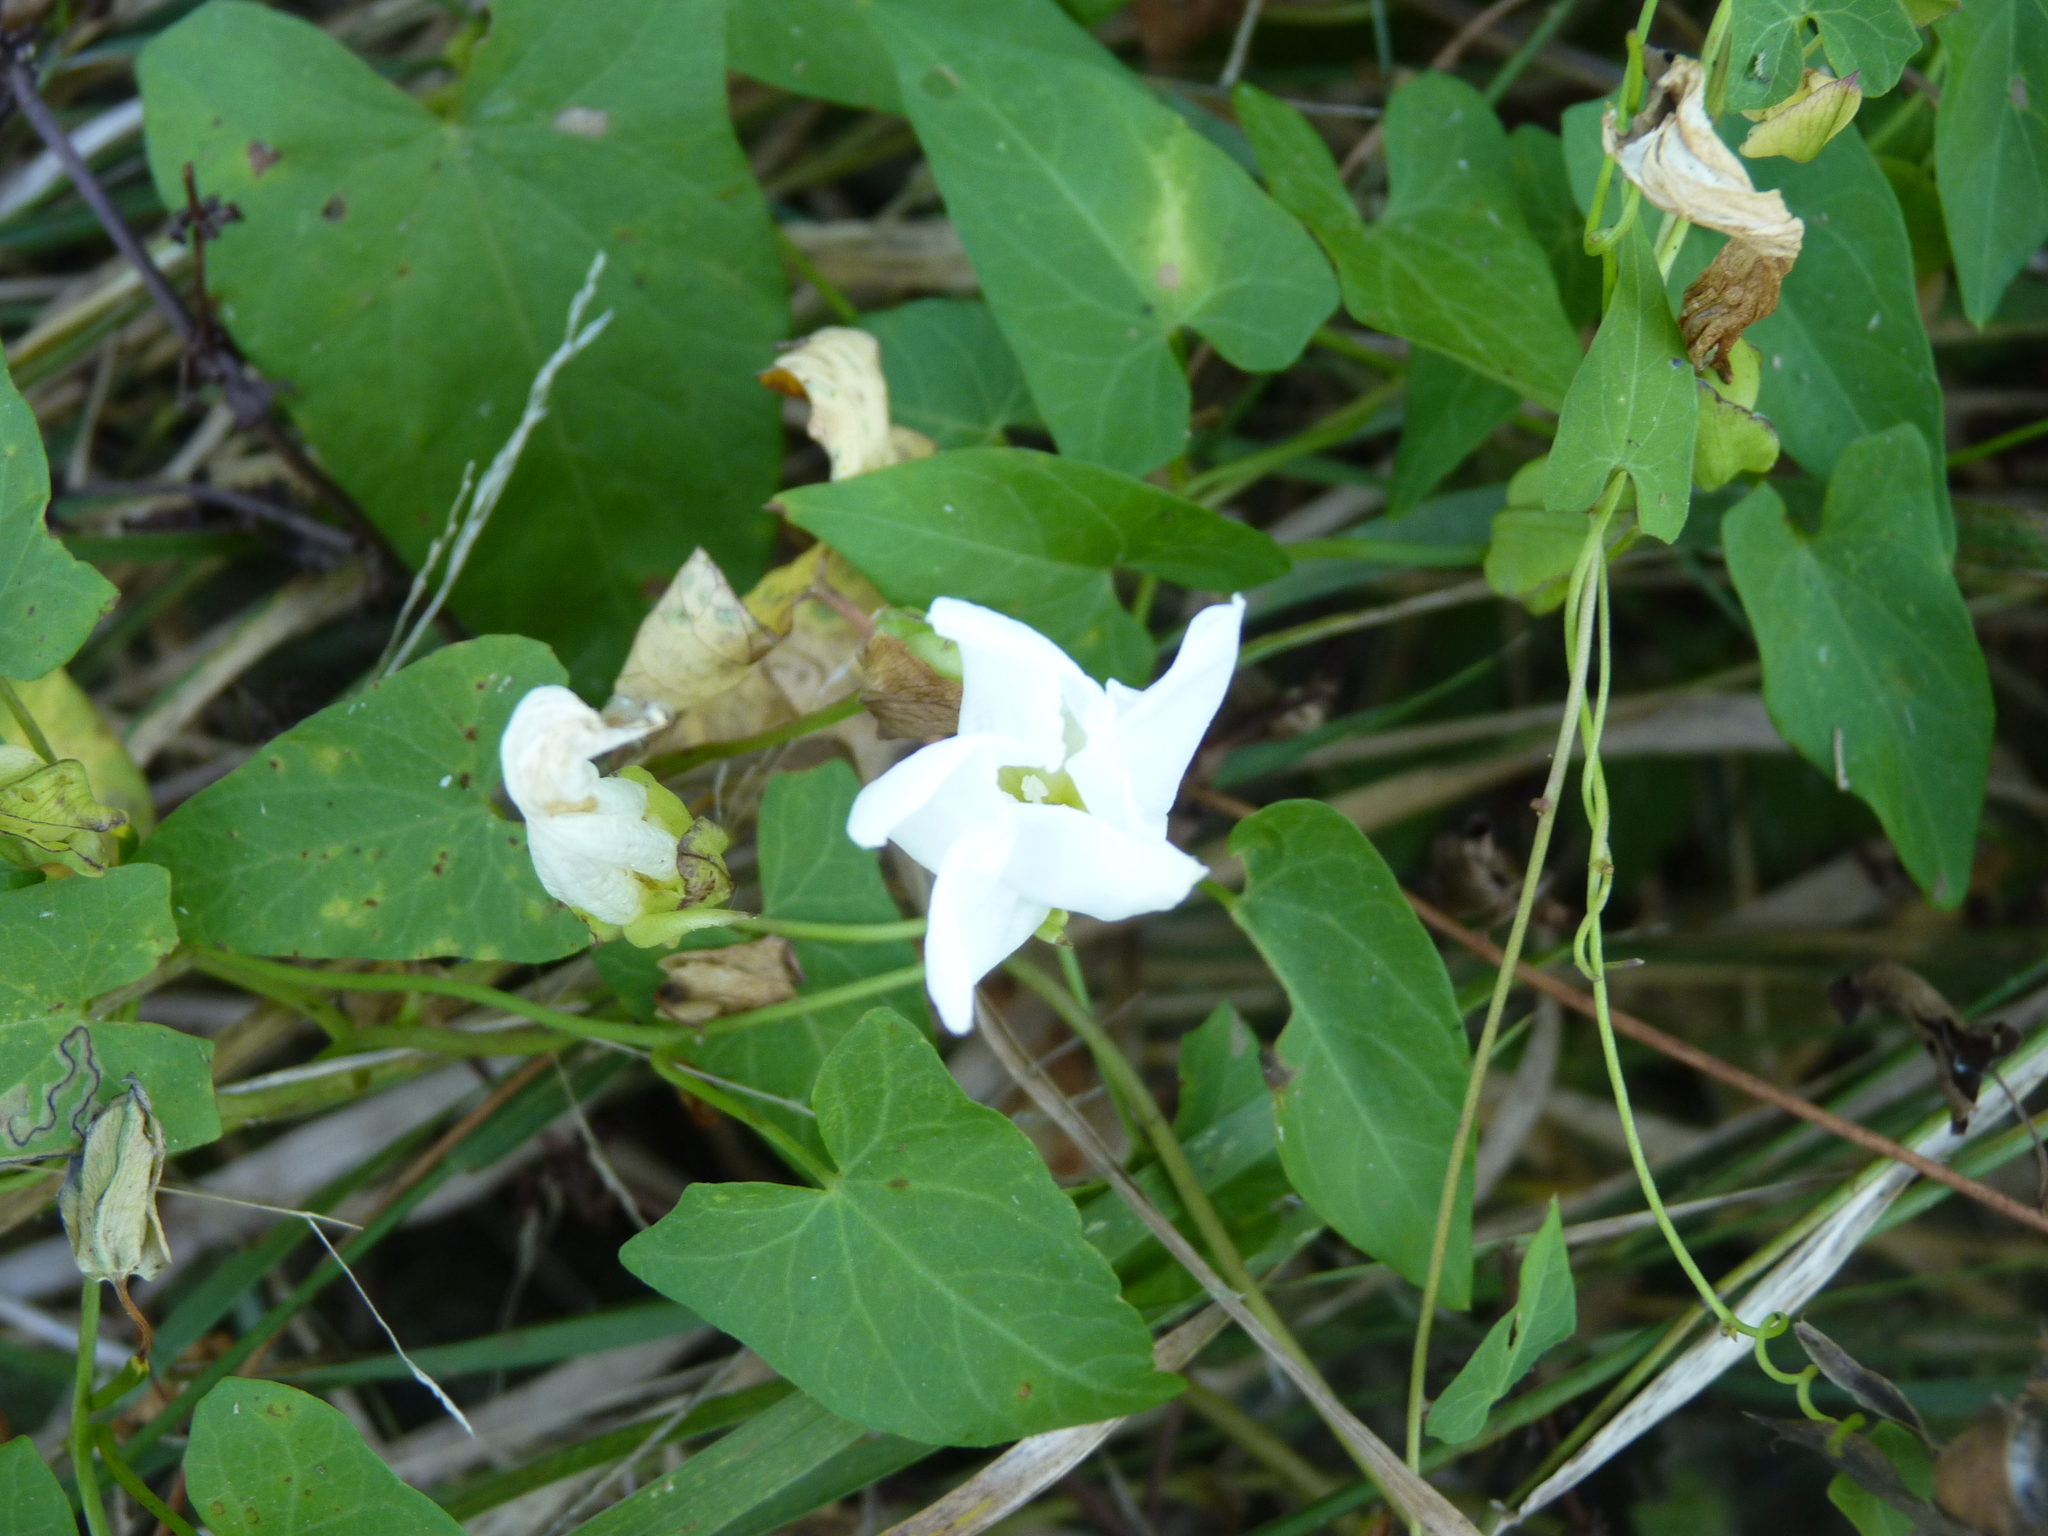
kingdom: Plantae
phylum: Tracheophyta
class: Magnoliopsida
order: Solanales
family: Convolvulaceae
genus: Calystegia
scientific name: Calystegia sepium
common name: Hedge bindweed
